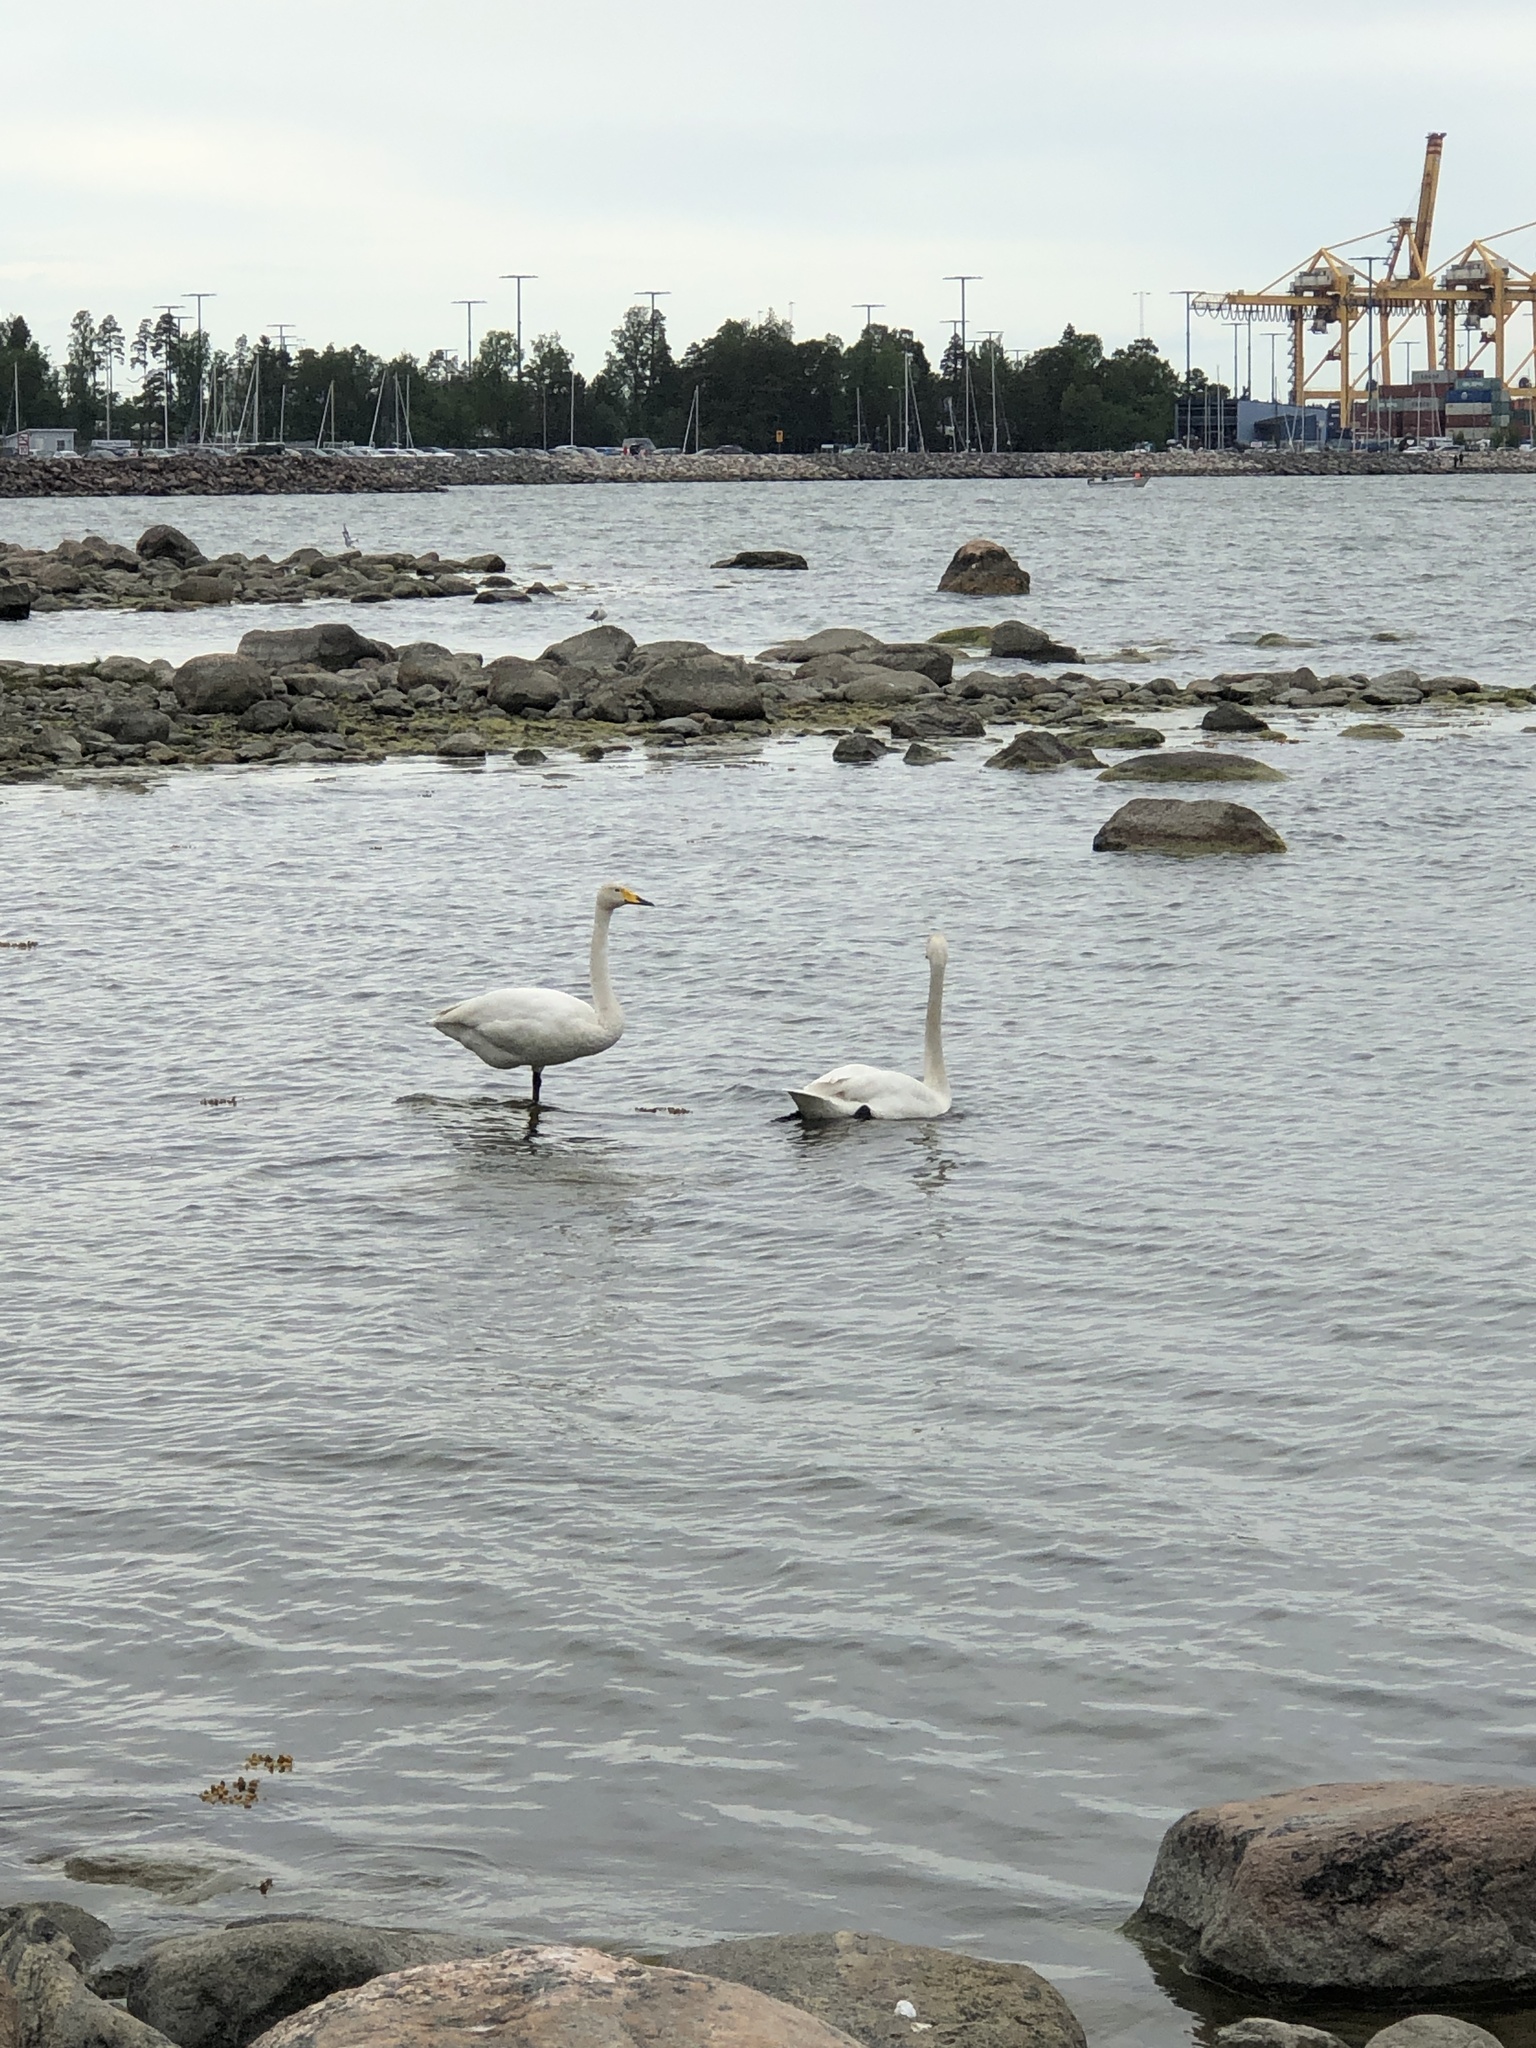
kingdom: Animalia
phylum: Chordata
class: Aves
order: Anseriformes
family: Anatidae
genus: Cygnus
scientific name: Cygnus cygnus
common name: Whooper swan
